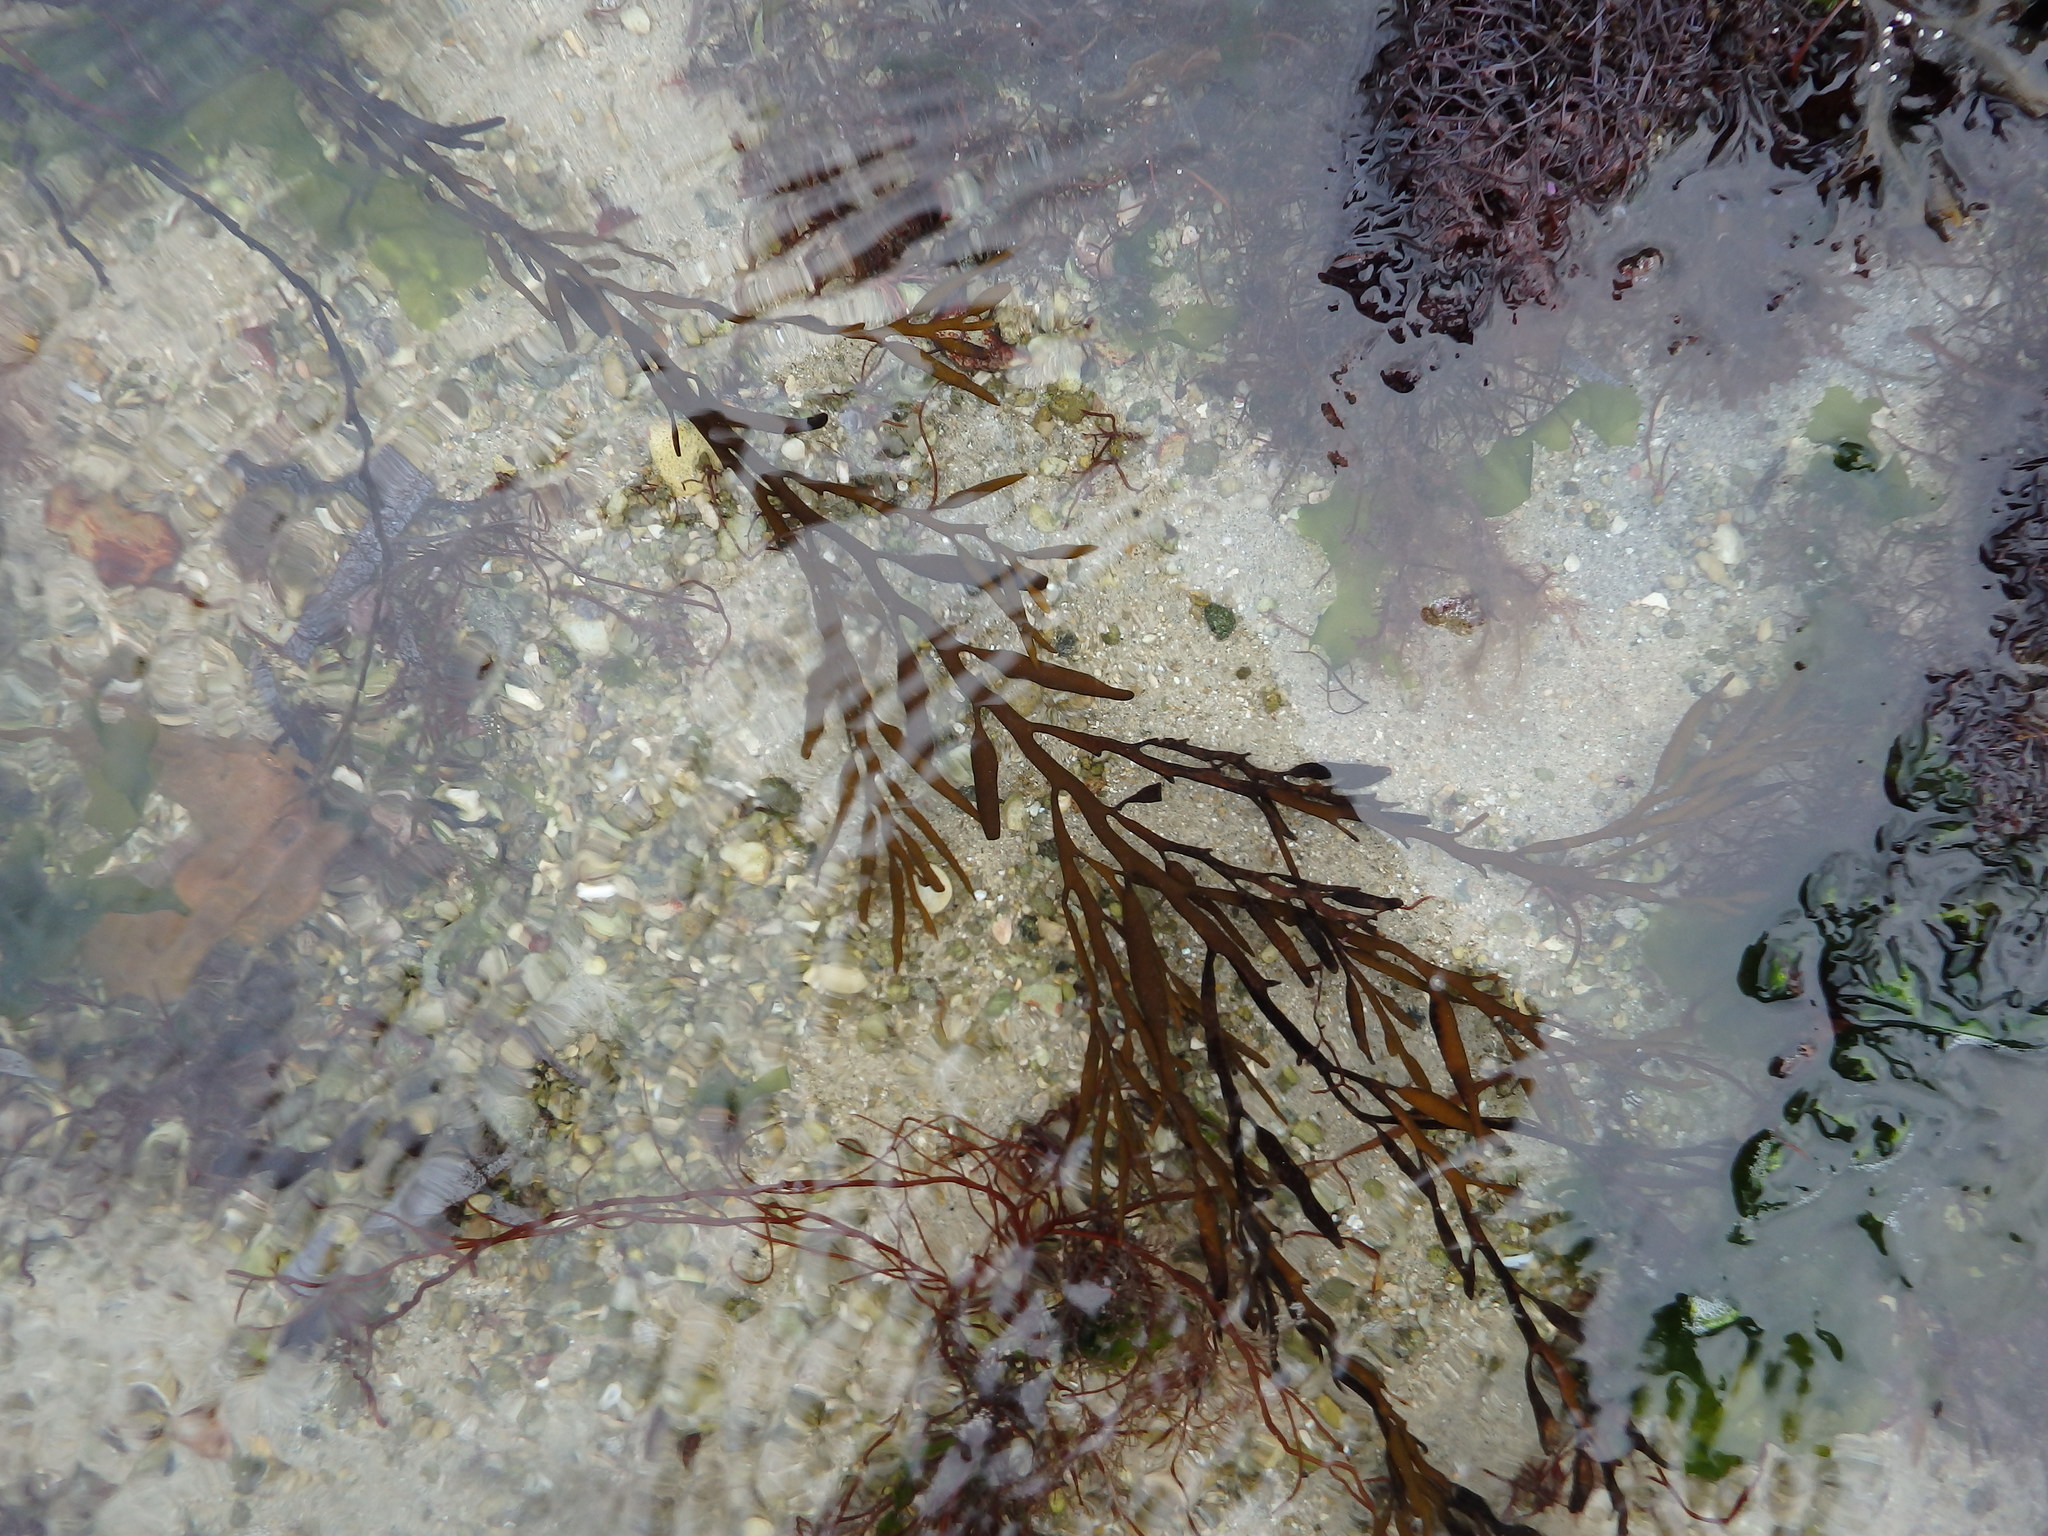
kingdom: Chromista
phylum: Ochrophyta
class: Phaeophyceae
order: Fucales
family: Sargassaceae
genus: Halidrys
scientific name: Halidrys siliquosa
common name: Sea oak
